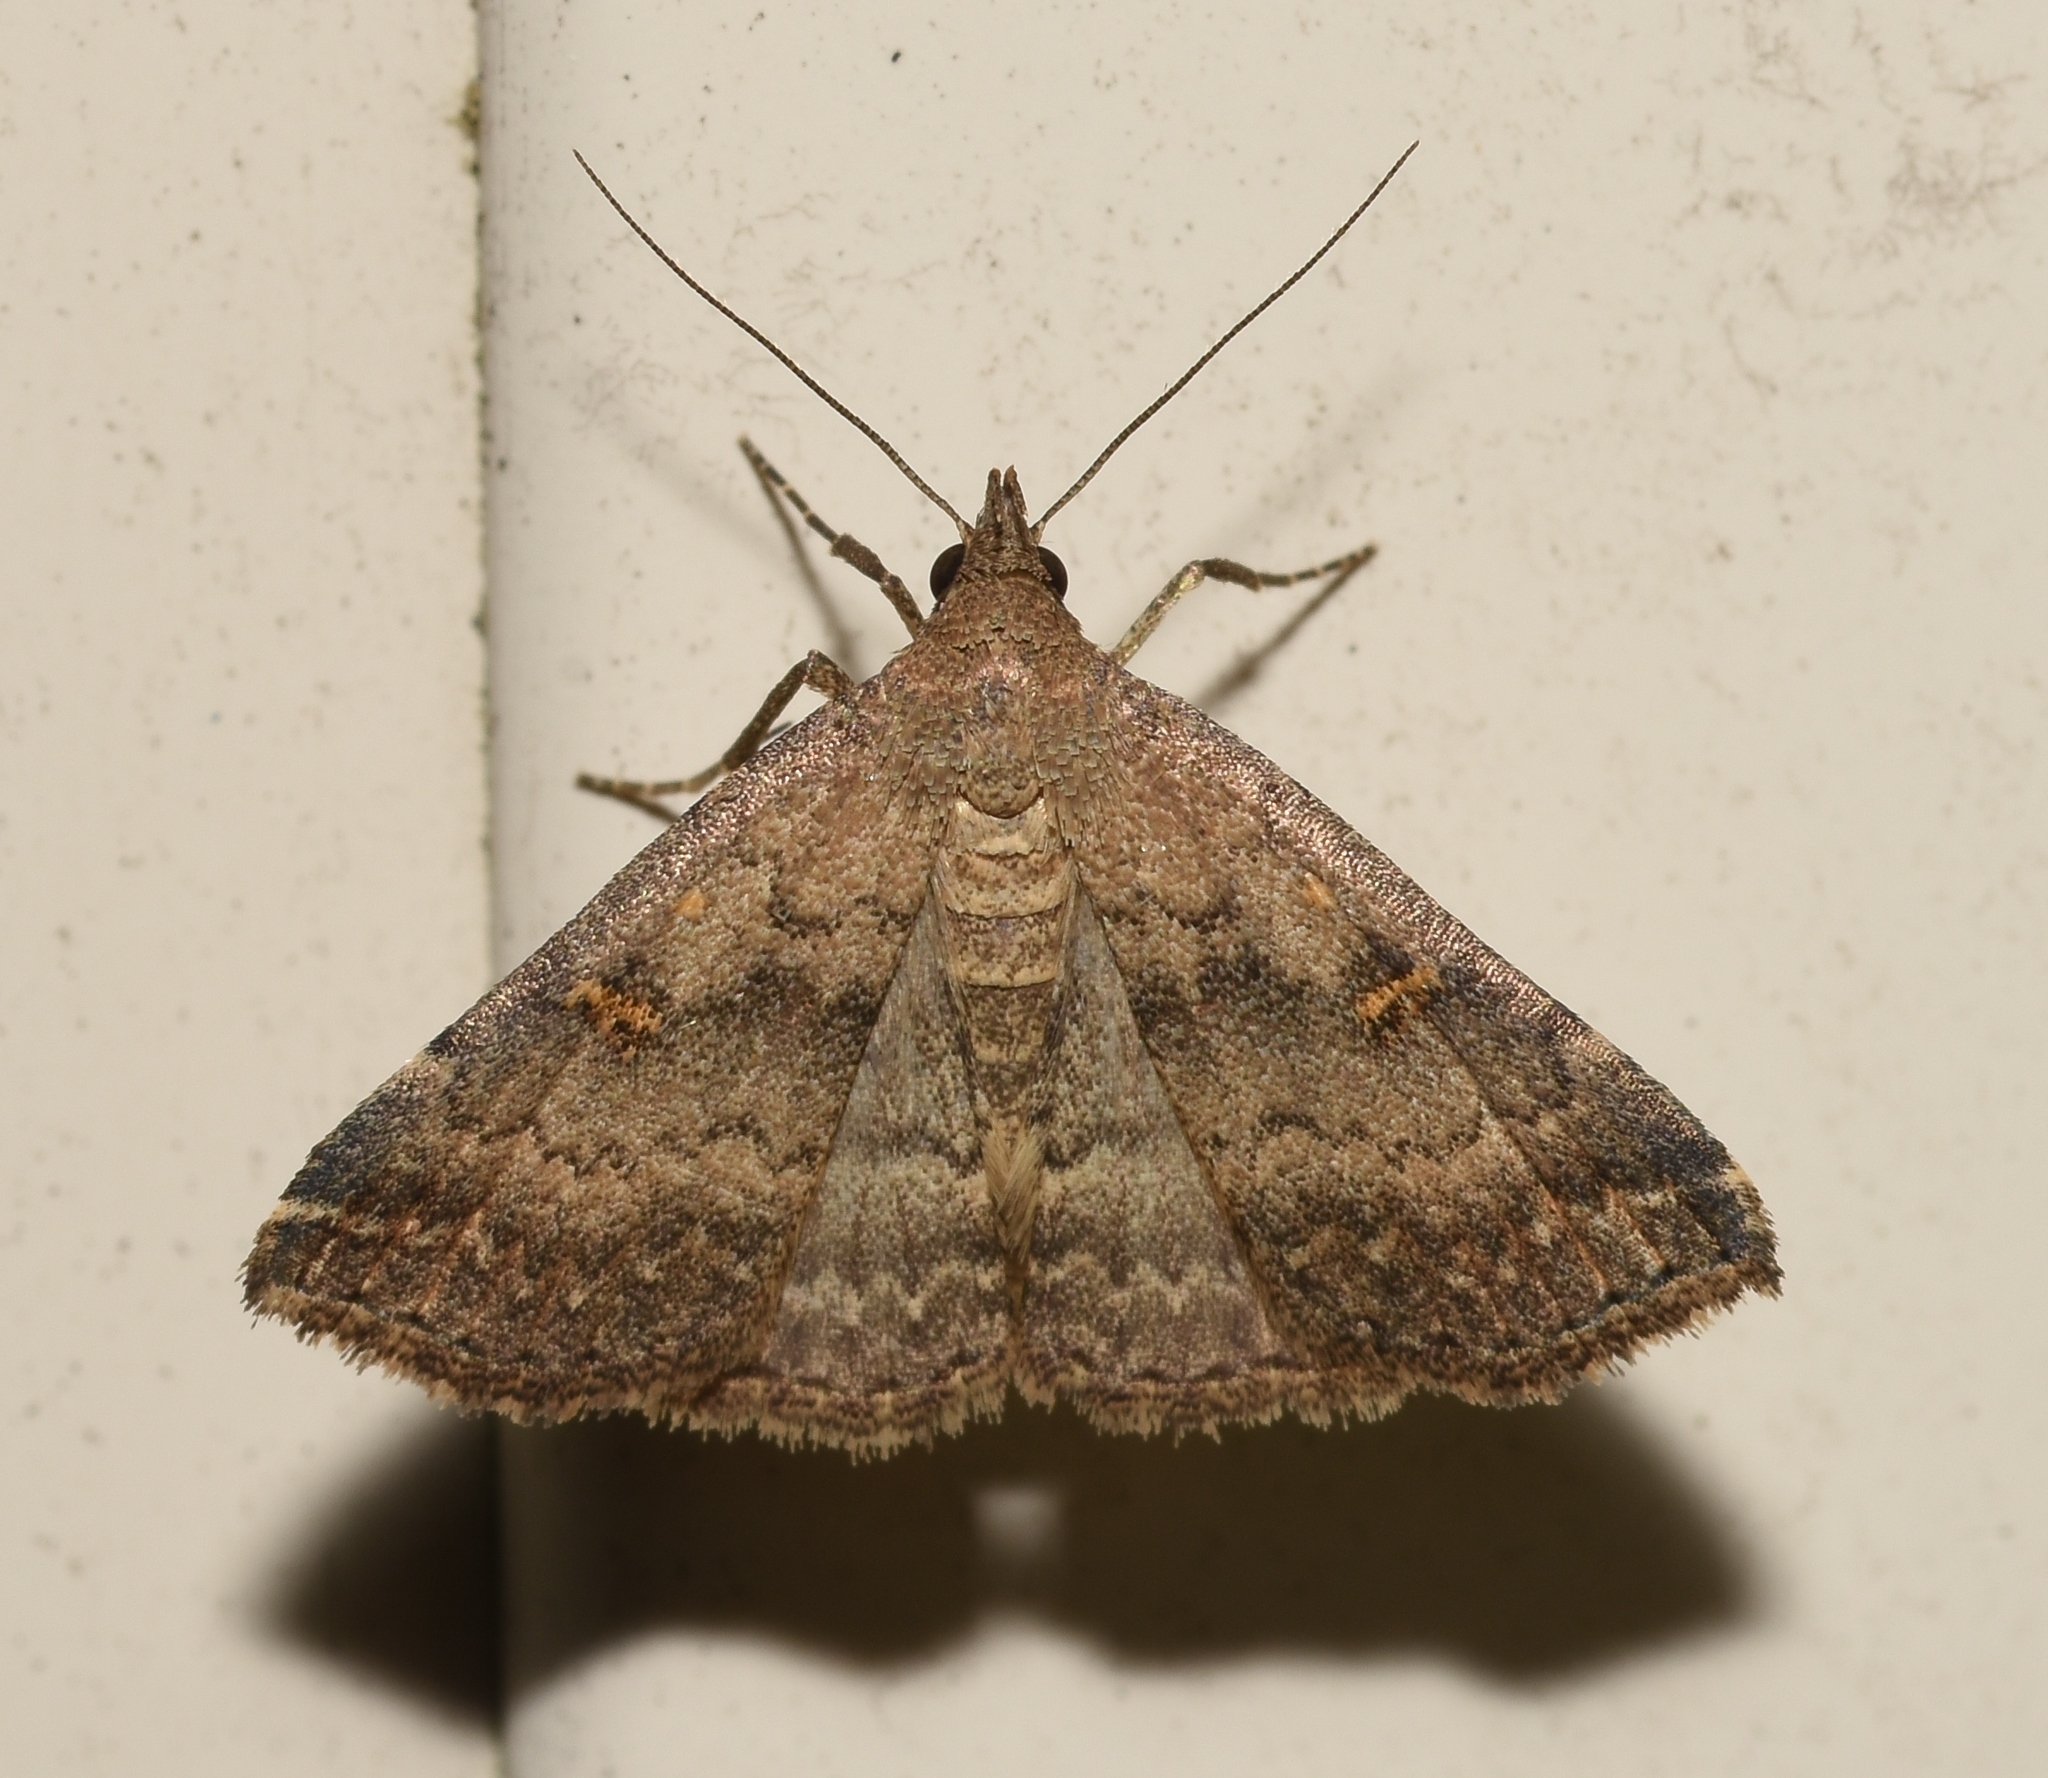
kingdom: Animalia
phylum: Arthropoda
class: Insecta
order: Lepidoptera
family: Erebidae
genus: Tetanolita
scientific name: Tetanolita floridana
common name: Florida tetanolita moth
